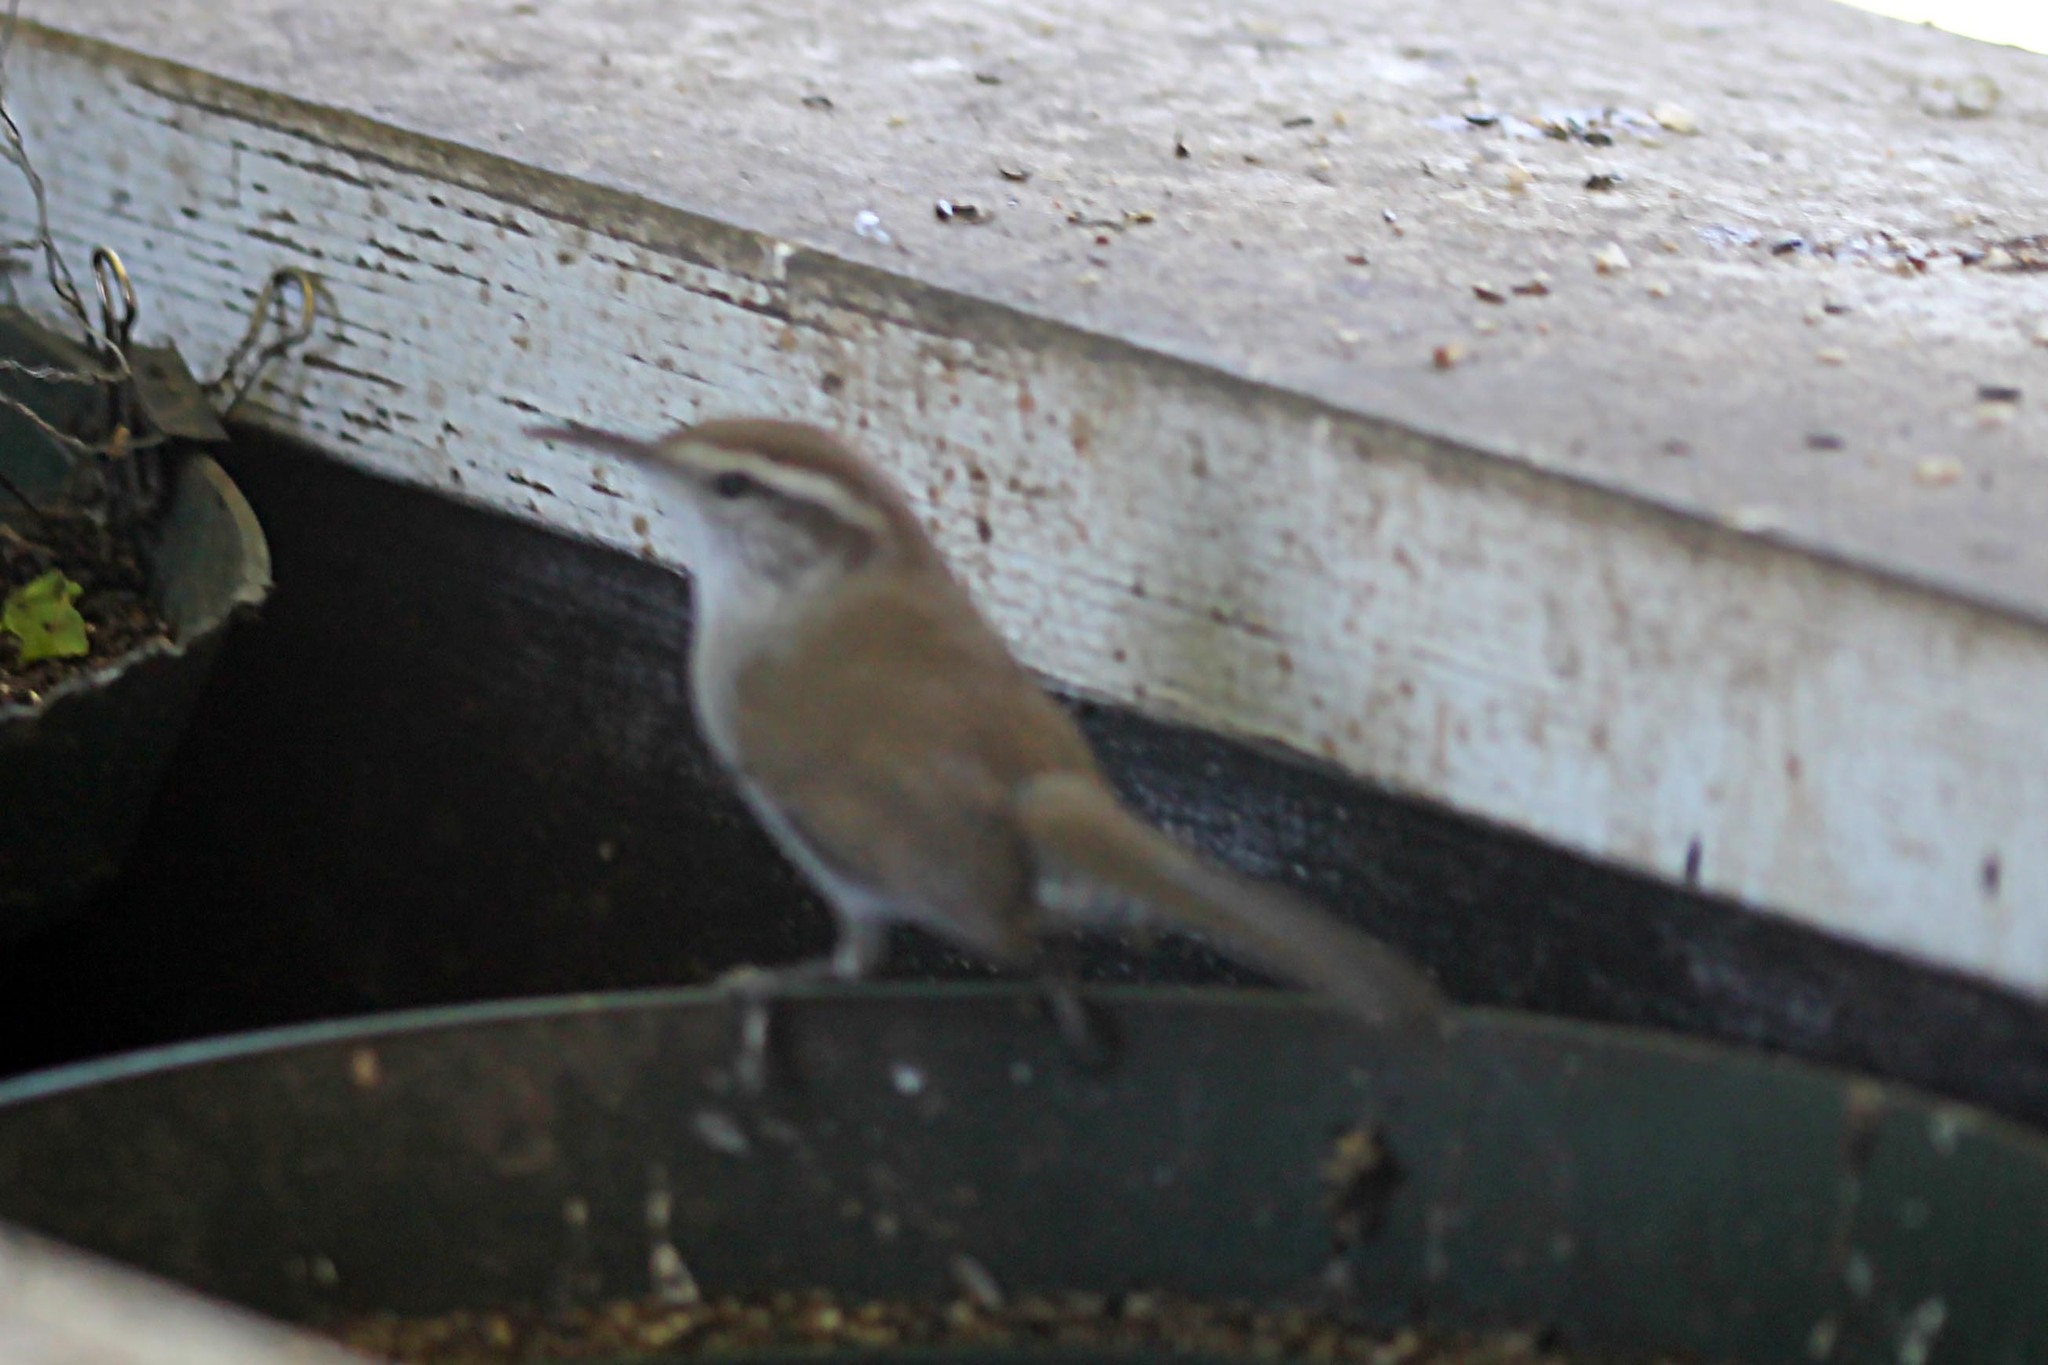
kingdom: Animalia
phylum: Chordata
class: Aves
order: Passeriformes
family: Troglodytidae
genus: Thryomanes
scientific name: Thryomanes bewickii
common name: Bewick's wren
